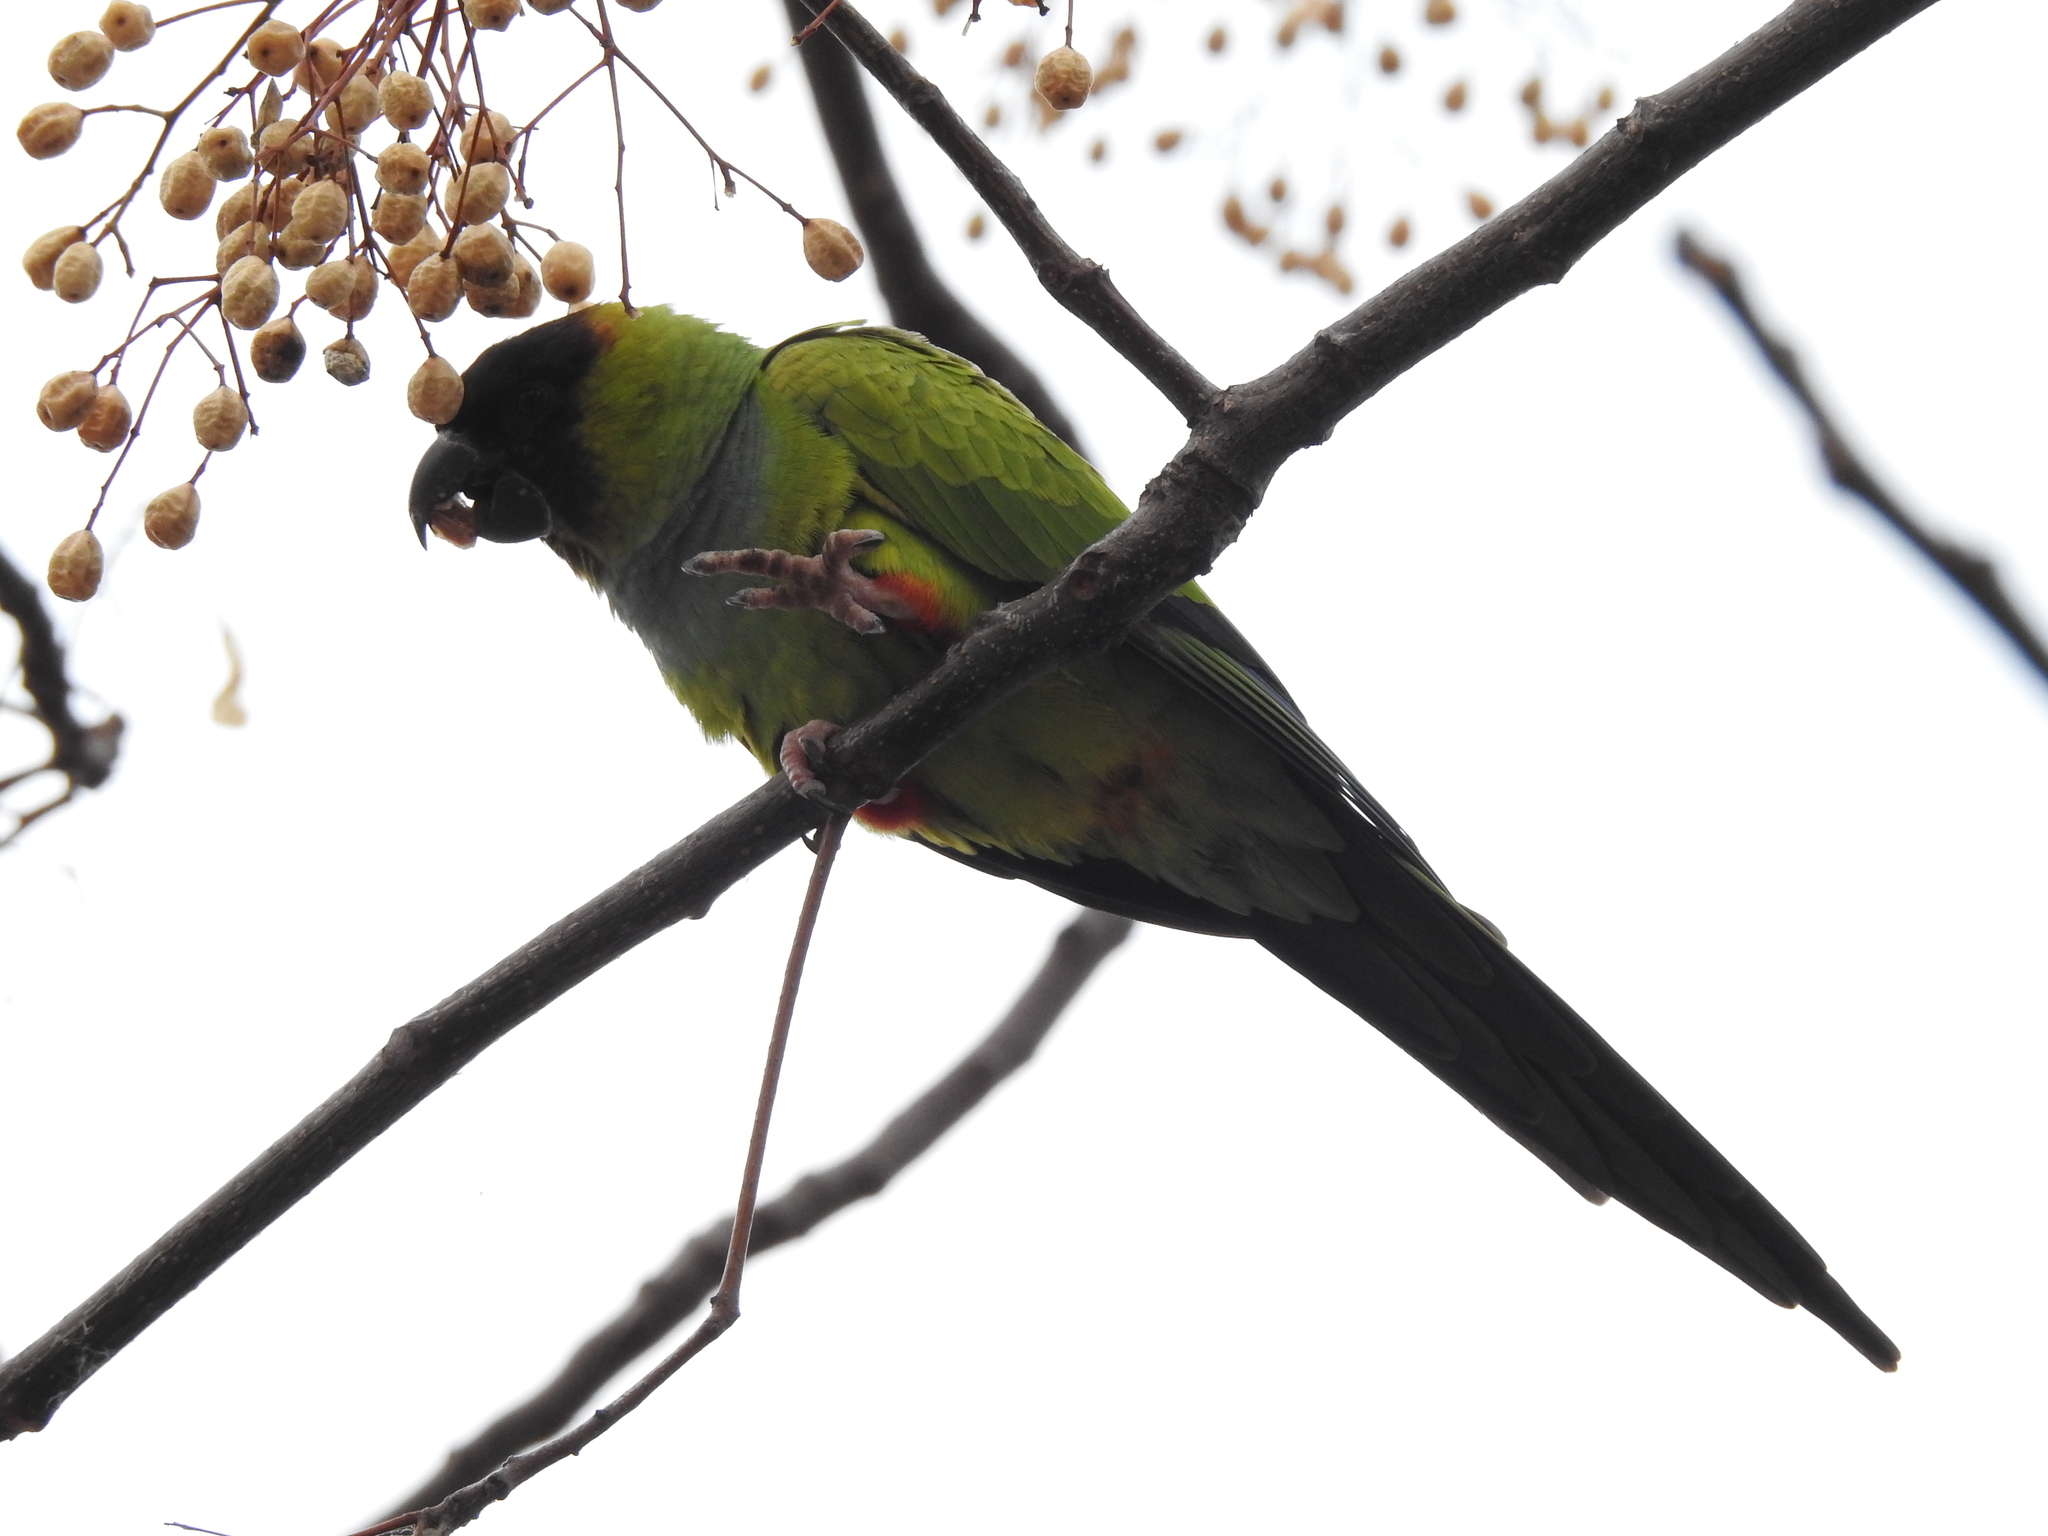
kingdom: Animalia
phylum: Chordata
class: Aves
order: Psittaciformes
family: Psittacidae
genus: Nandayus
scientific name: Nandayus nenday
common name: Nanday parakeet
